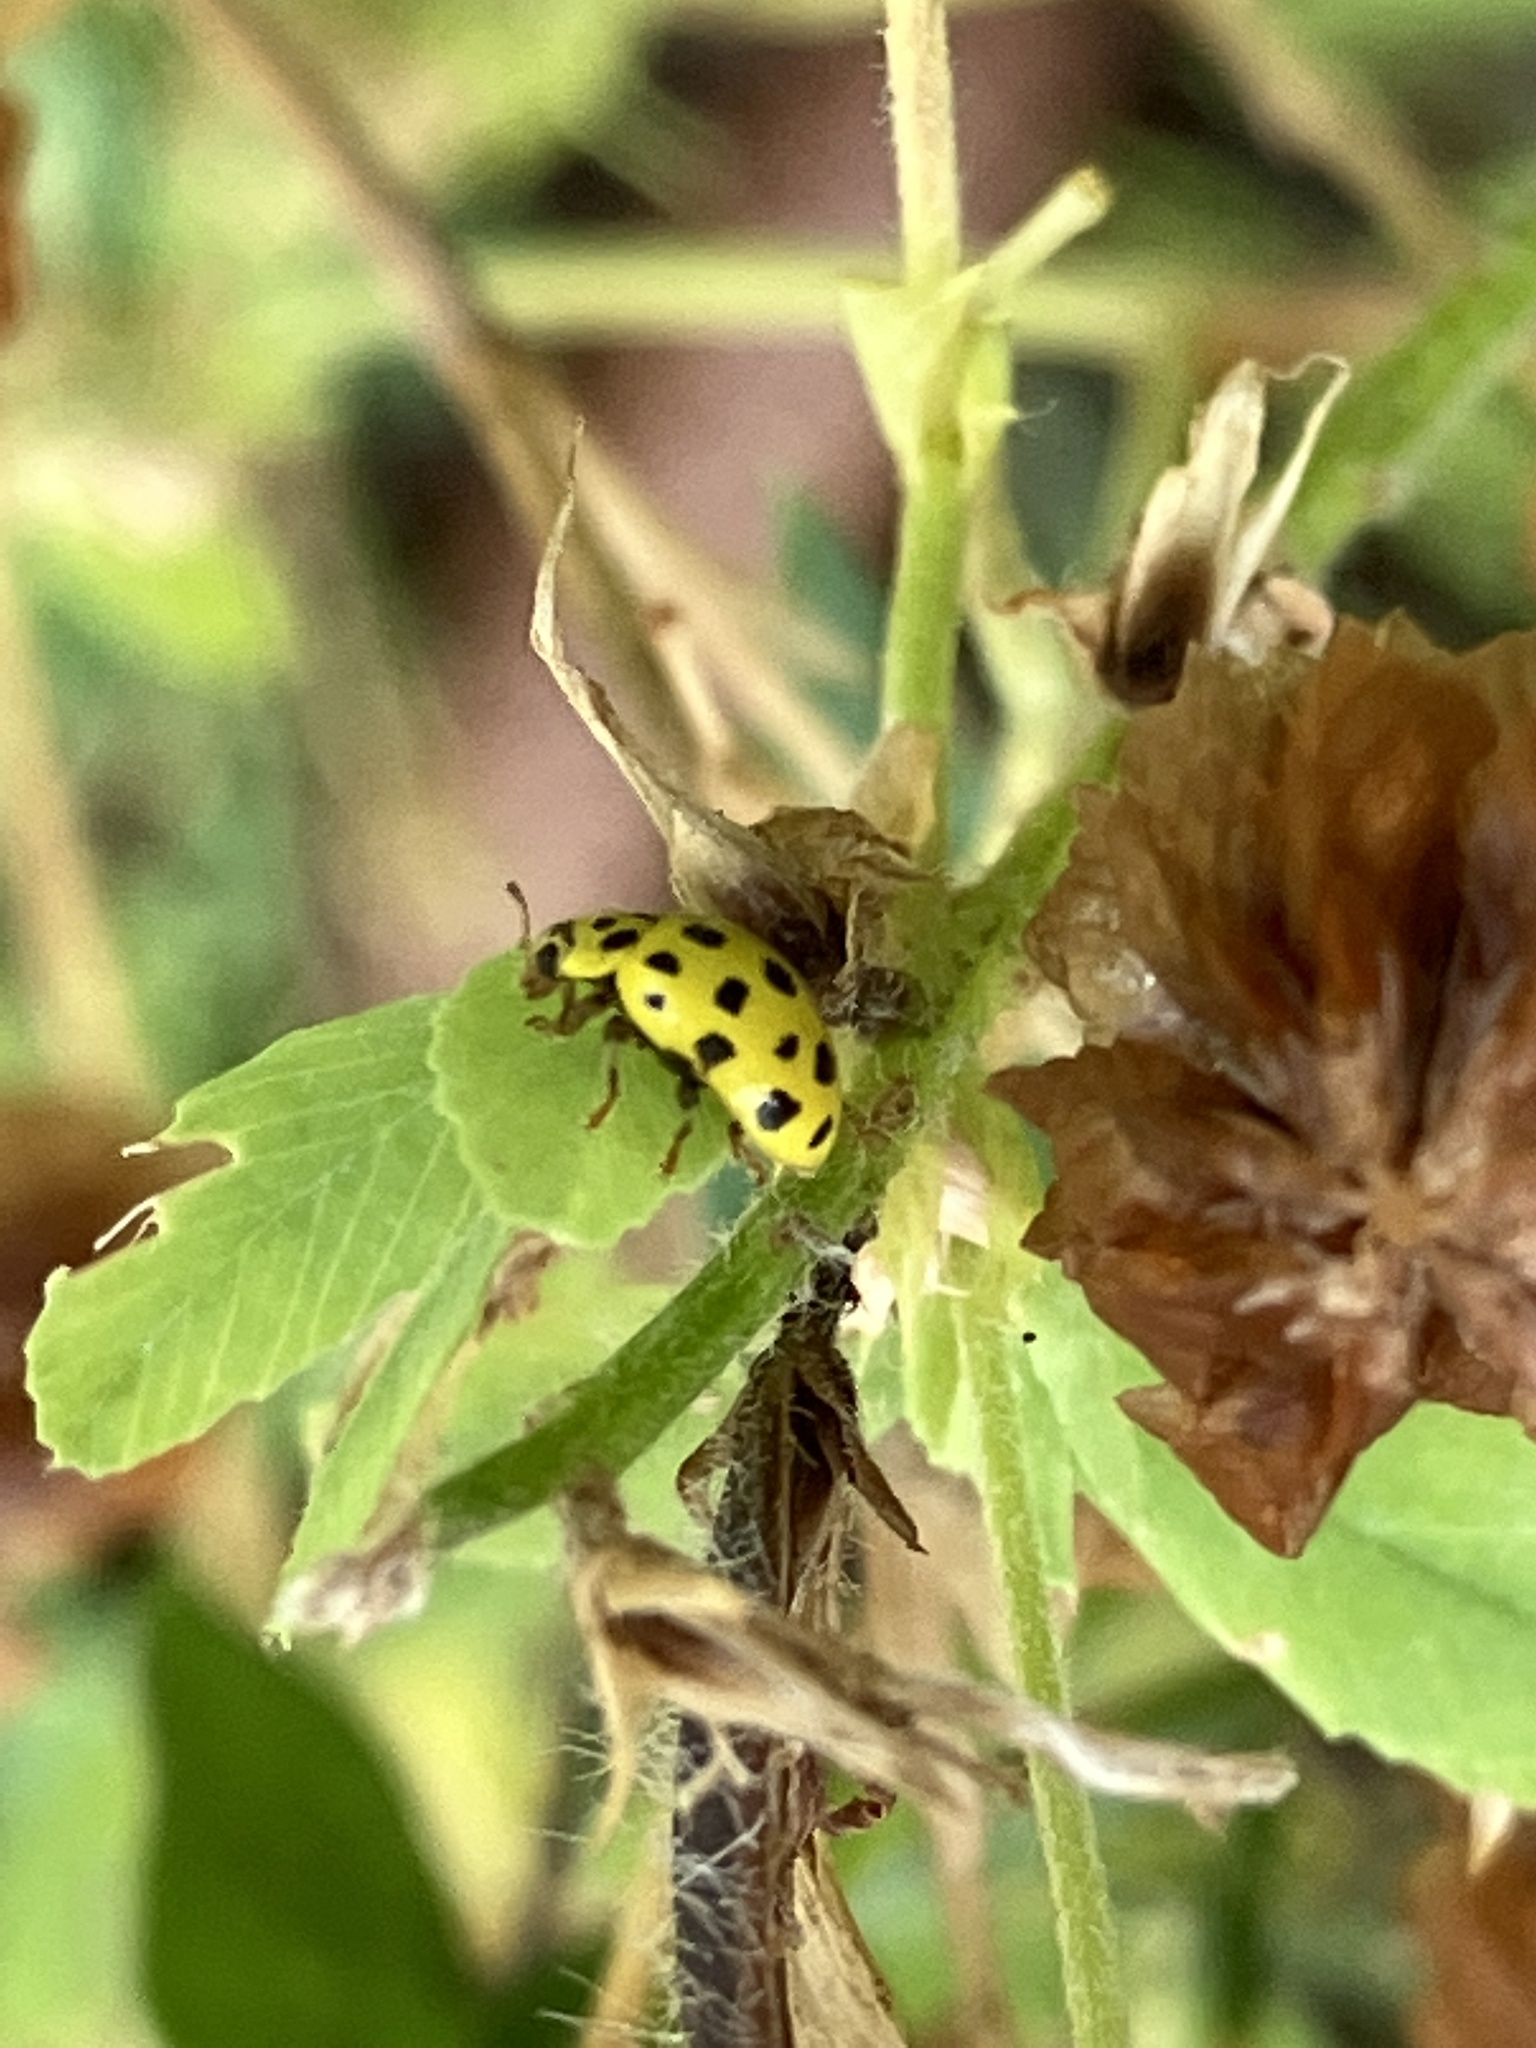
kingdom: Animalia
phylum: Arthropoda
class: Insecta
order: Coleoptera
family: Coccinellidae
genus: Psyllobora
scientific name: Psyllobora vigintiduopunctata
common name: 22-spot ladybird
